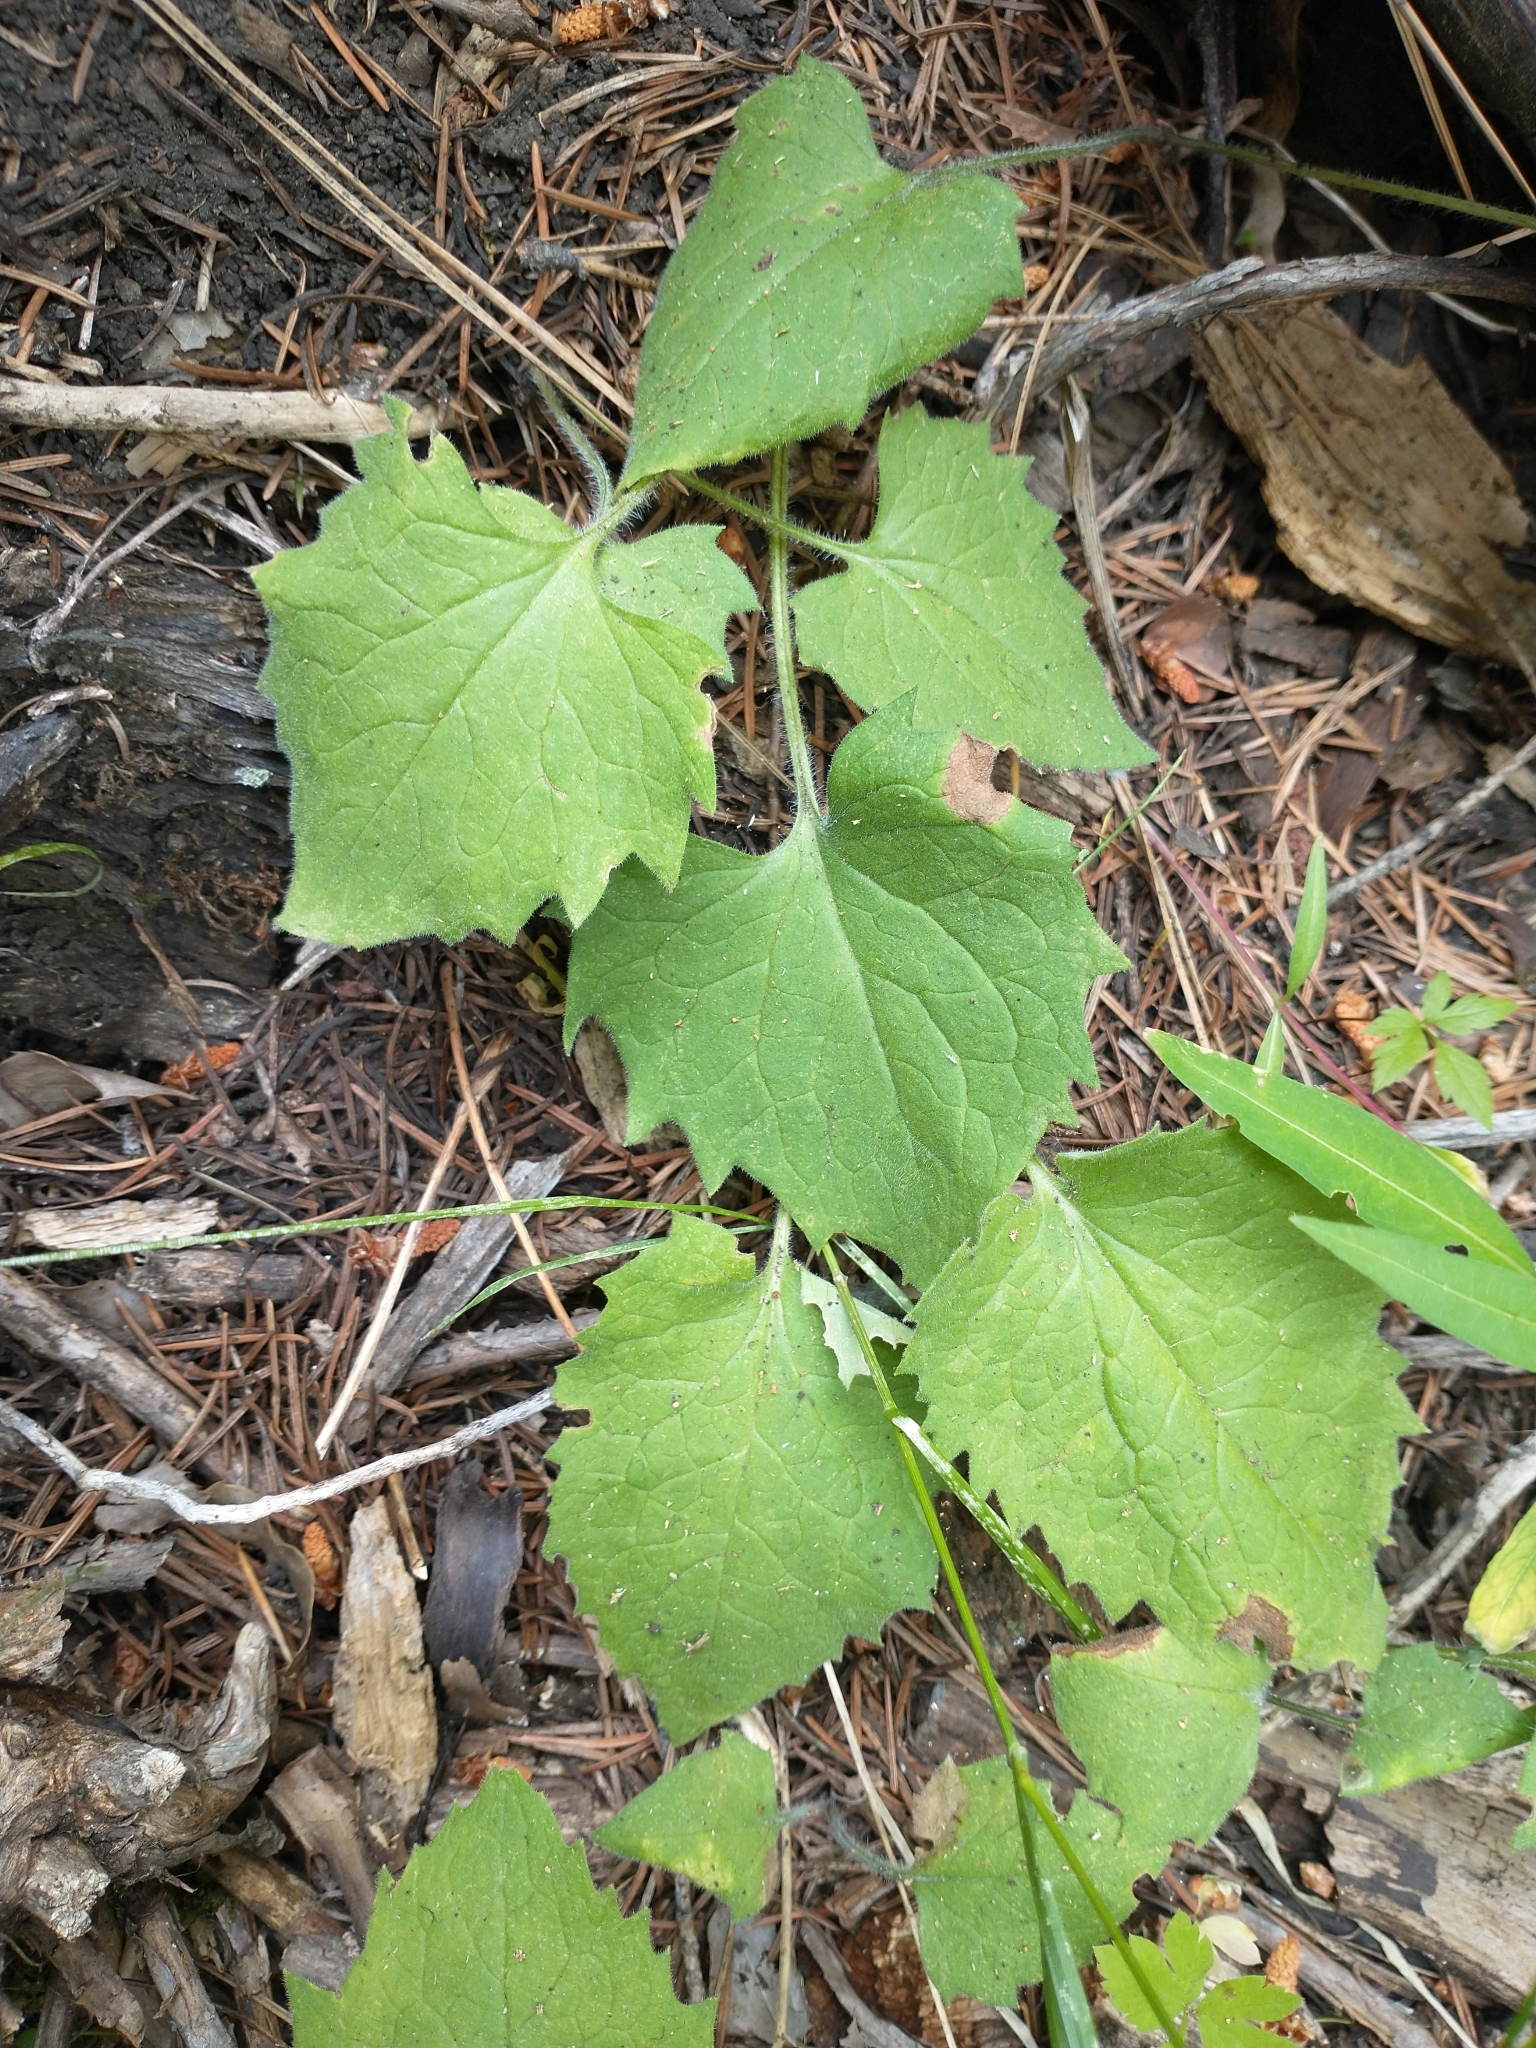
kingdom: Plantae
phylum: Tracheophyta
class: Magnoliopsida
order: Asterales
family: Asteraceae
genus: Arnica
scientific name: Arnica cordifolia
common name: Heart-leaf arnica
